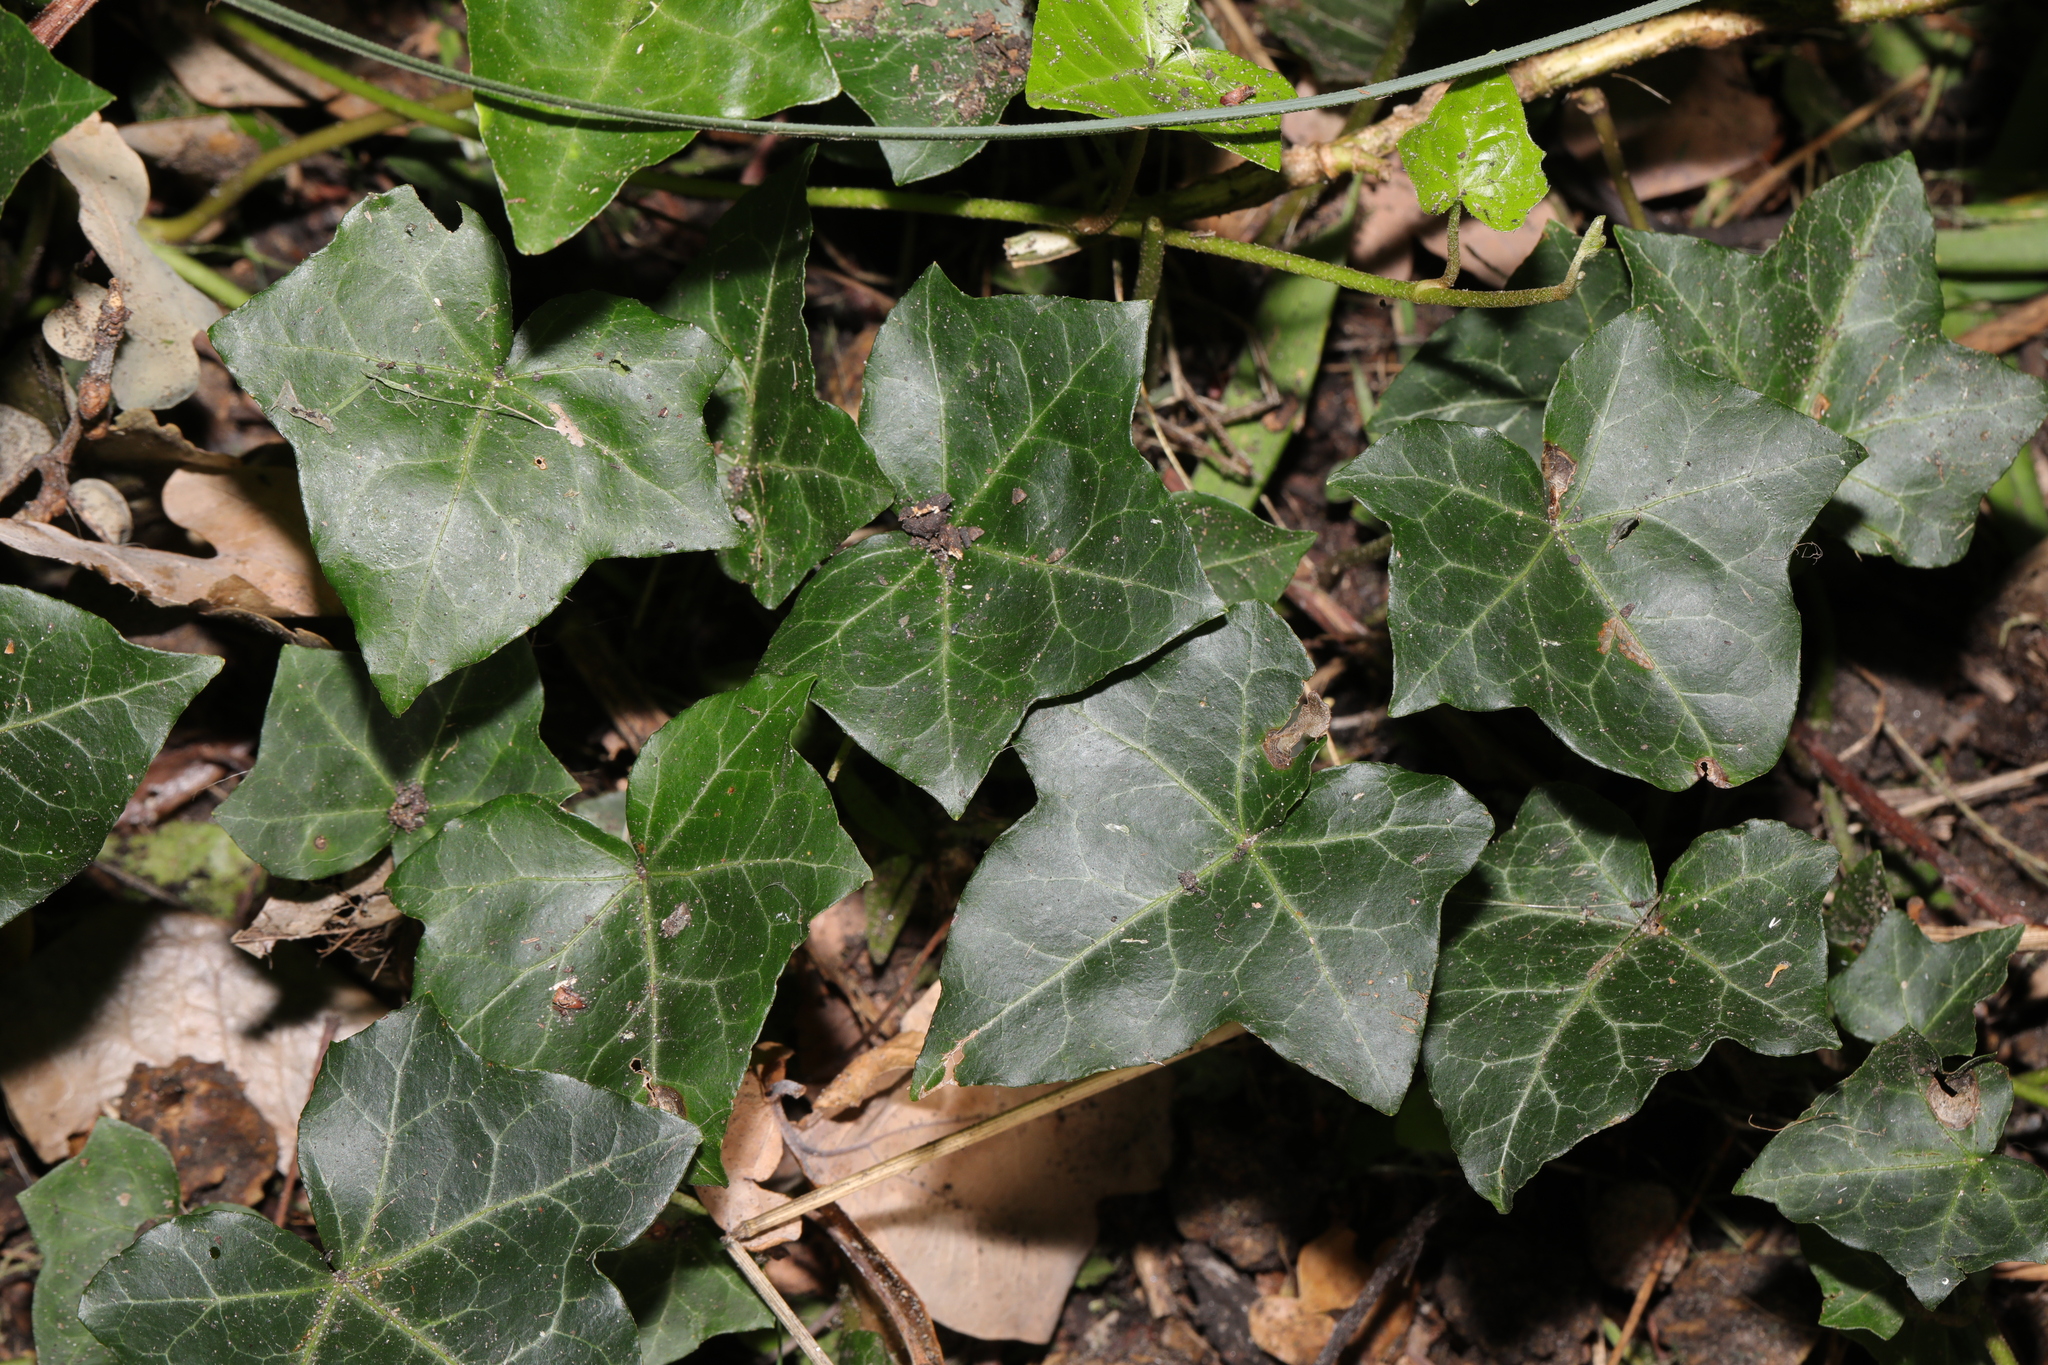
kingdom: Plantae
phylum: Tracheophyta
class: Magnoliopsida
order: Apiales
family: Araliaceae
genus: Hedera
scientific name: Hedera helix
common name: Ivy
